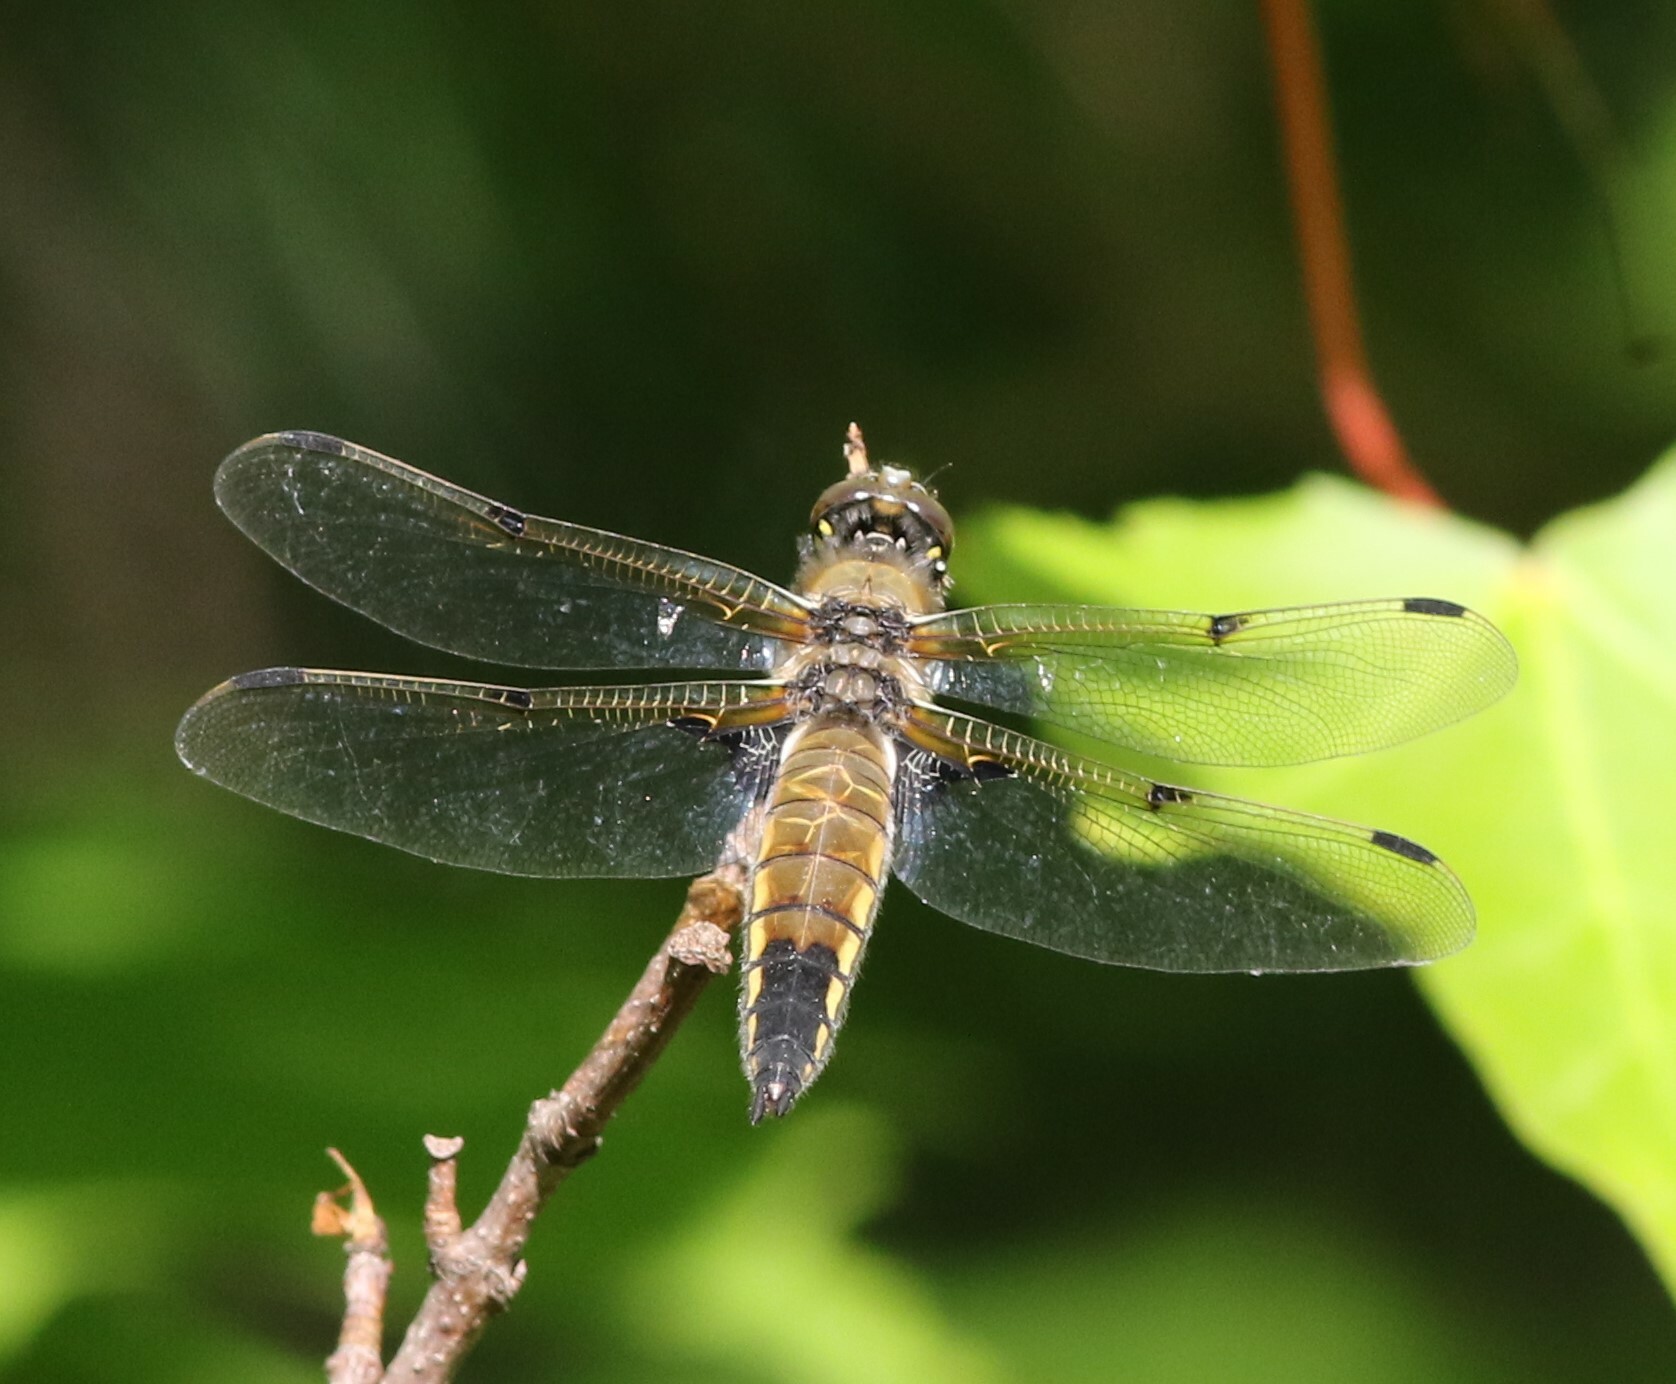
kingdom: Animalia
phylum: Arthropoda
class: Insecta
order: Odonata
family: Libellulidae
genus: Libellula
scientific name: Libellula quadrimaculata
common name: Four-spotted chaser
